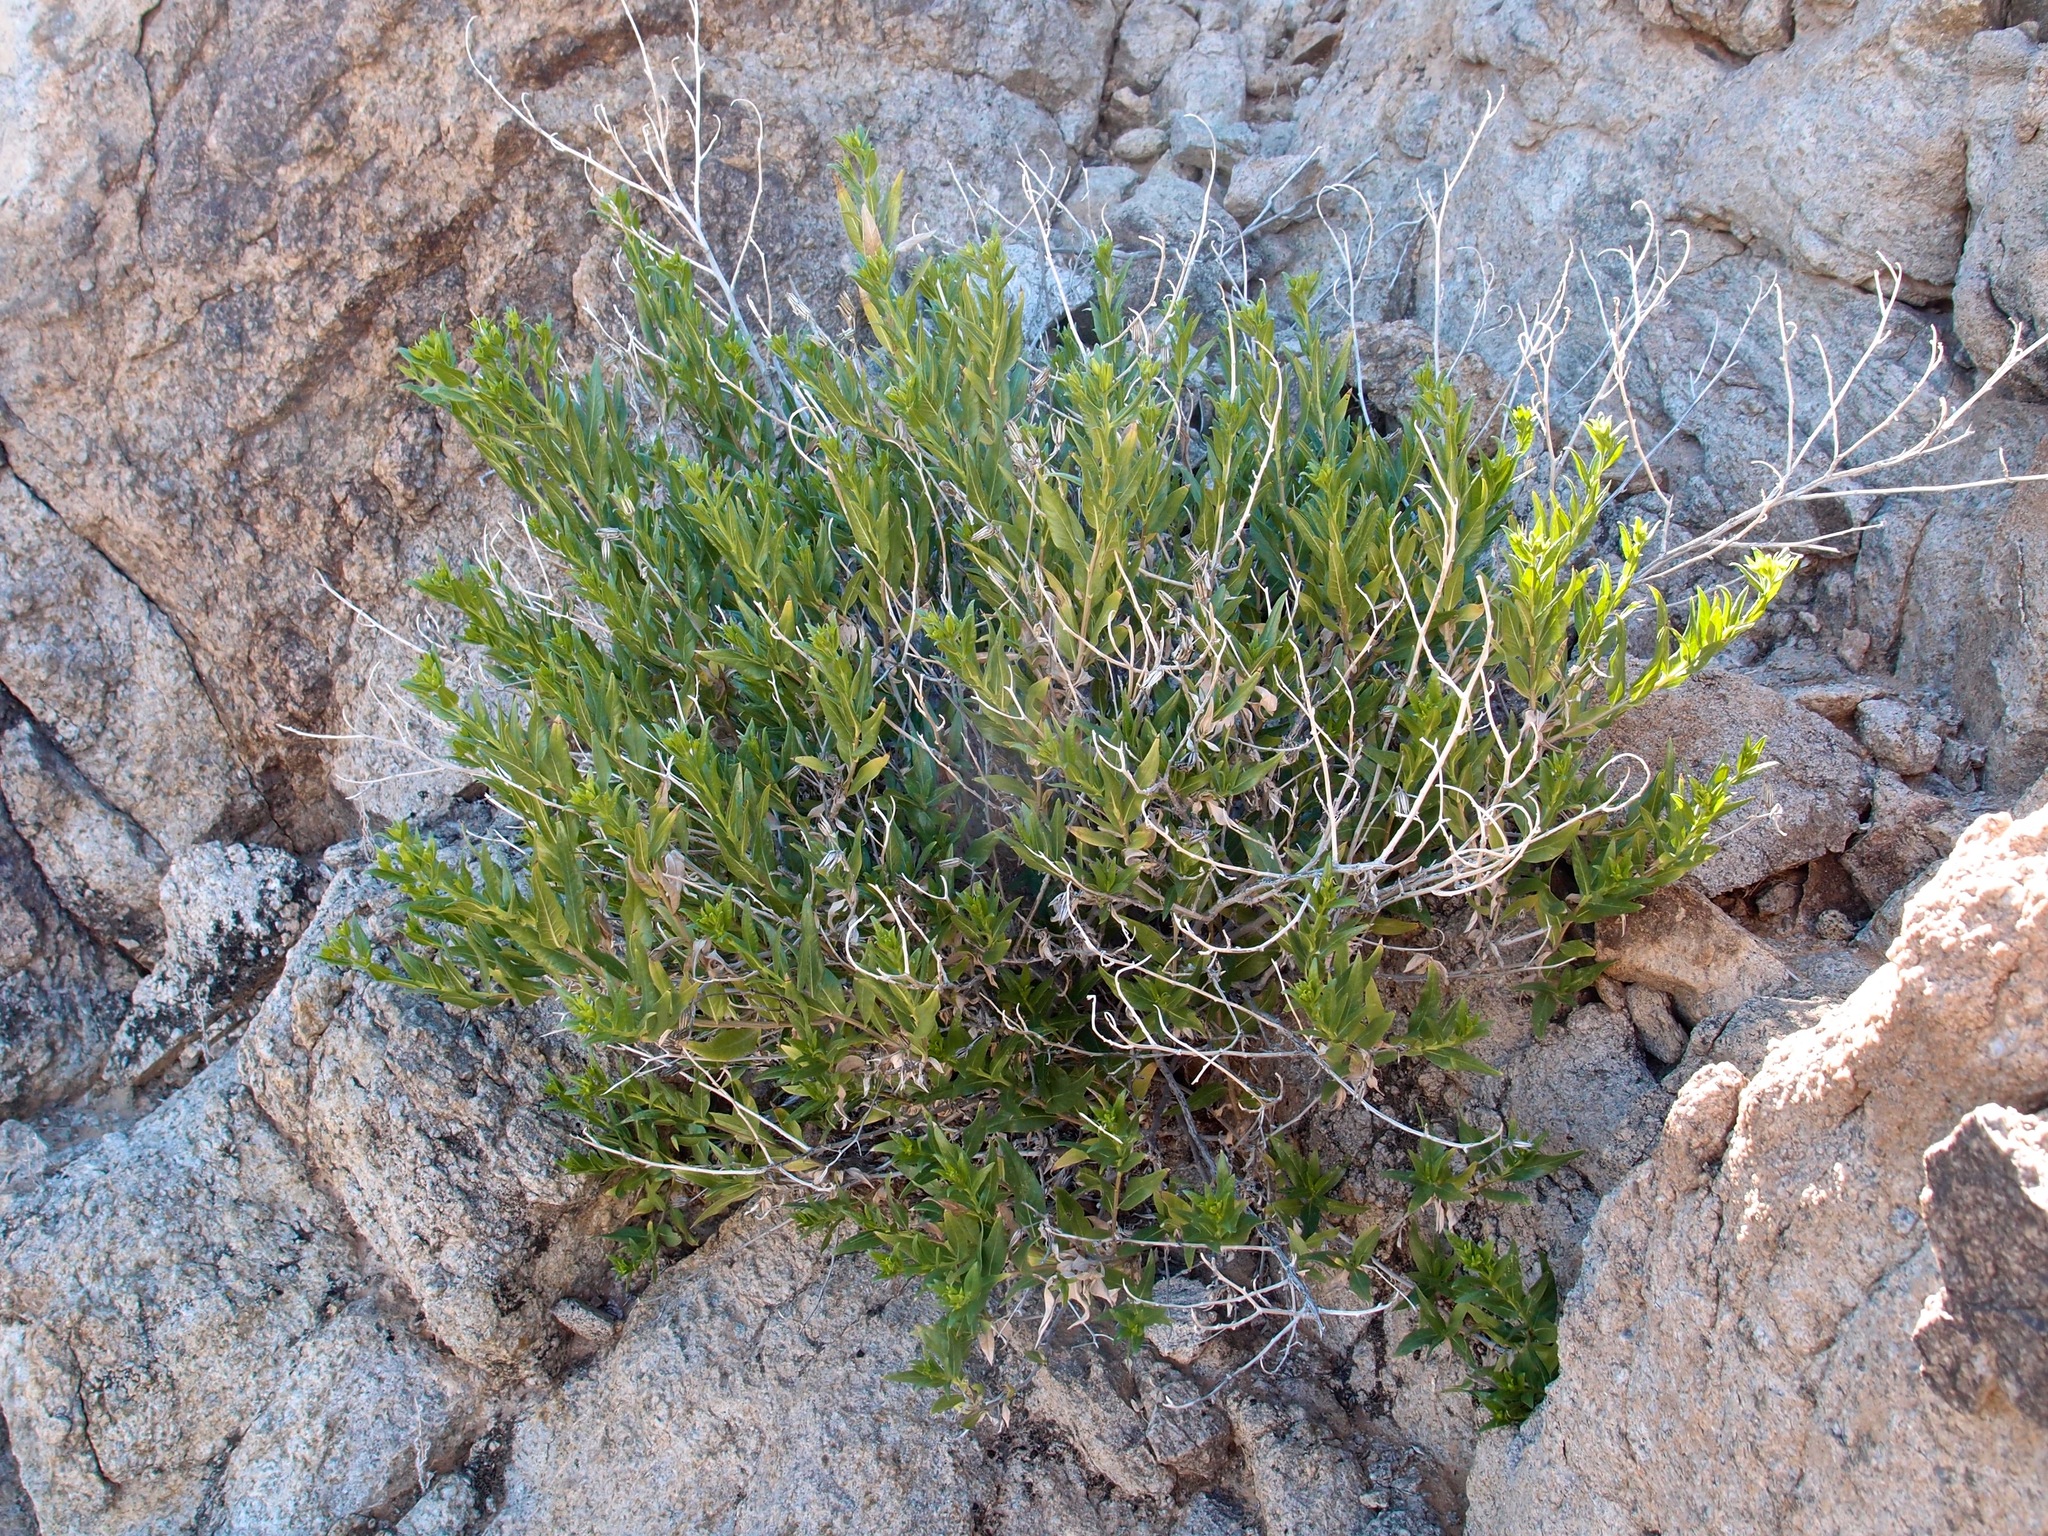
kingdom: Plantae
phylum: Tracheophyta
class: Magnoliopsida
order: Asterales
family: Asteraceae
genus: Trixis
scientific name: Trixis californica
